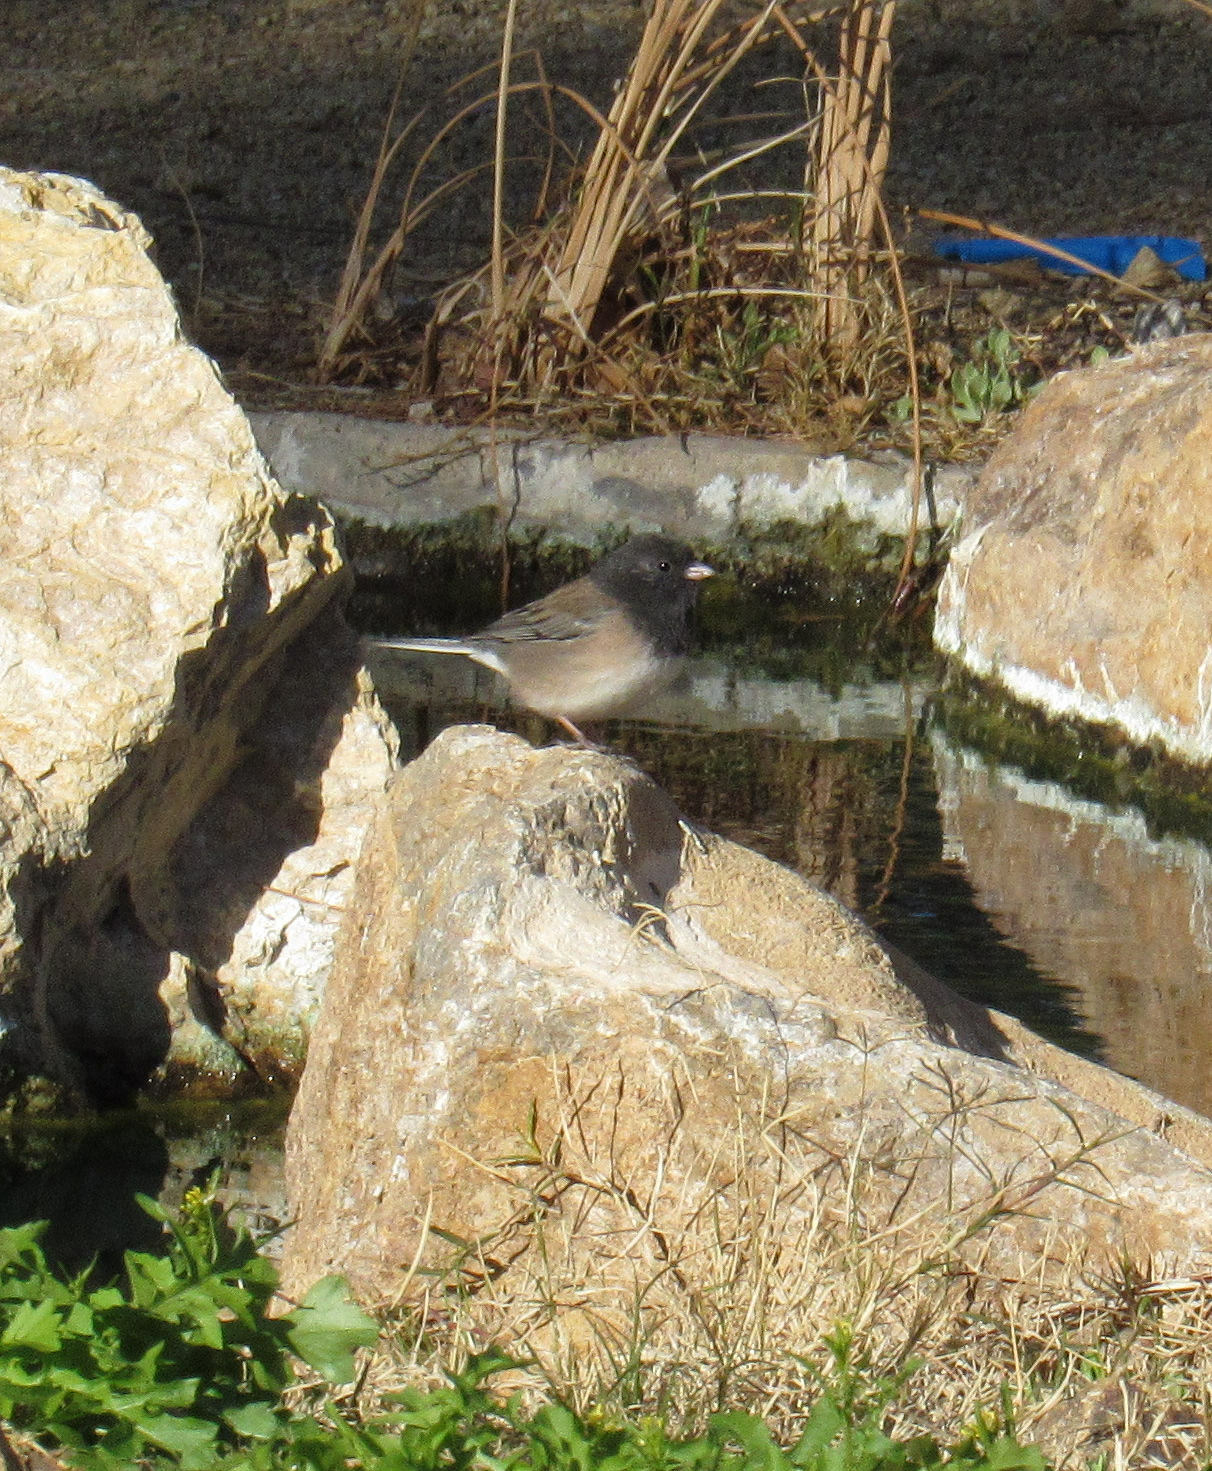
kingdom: Animalia
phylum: Chordata
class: Aves
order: Passeriformes
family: Passerellidae
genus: Junco
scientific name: Junco hyemalis
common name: Dark-eyed junco
